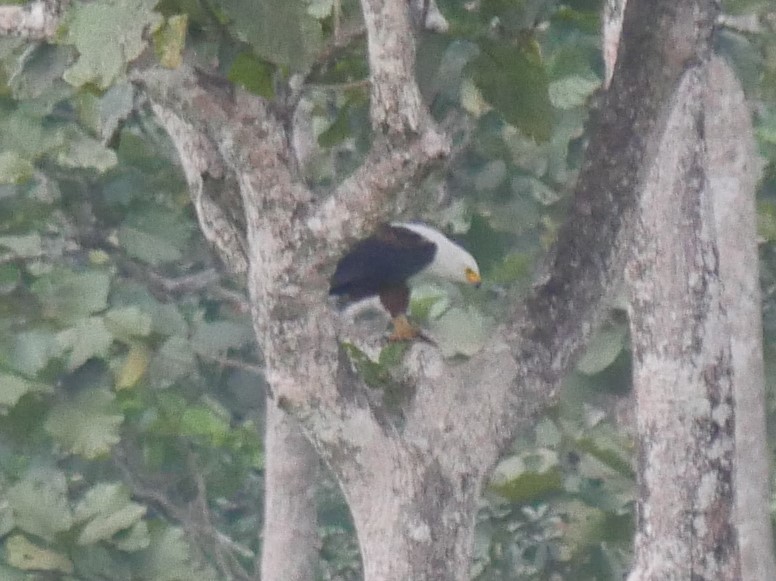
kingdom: Animalia
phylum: Chordata
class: Aves
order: Accipitriformes
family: Accipitridae
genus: Haliaeetus
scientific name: Haliaeetus vocifer
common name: African fish eagle
